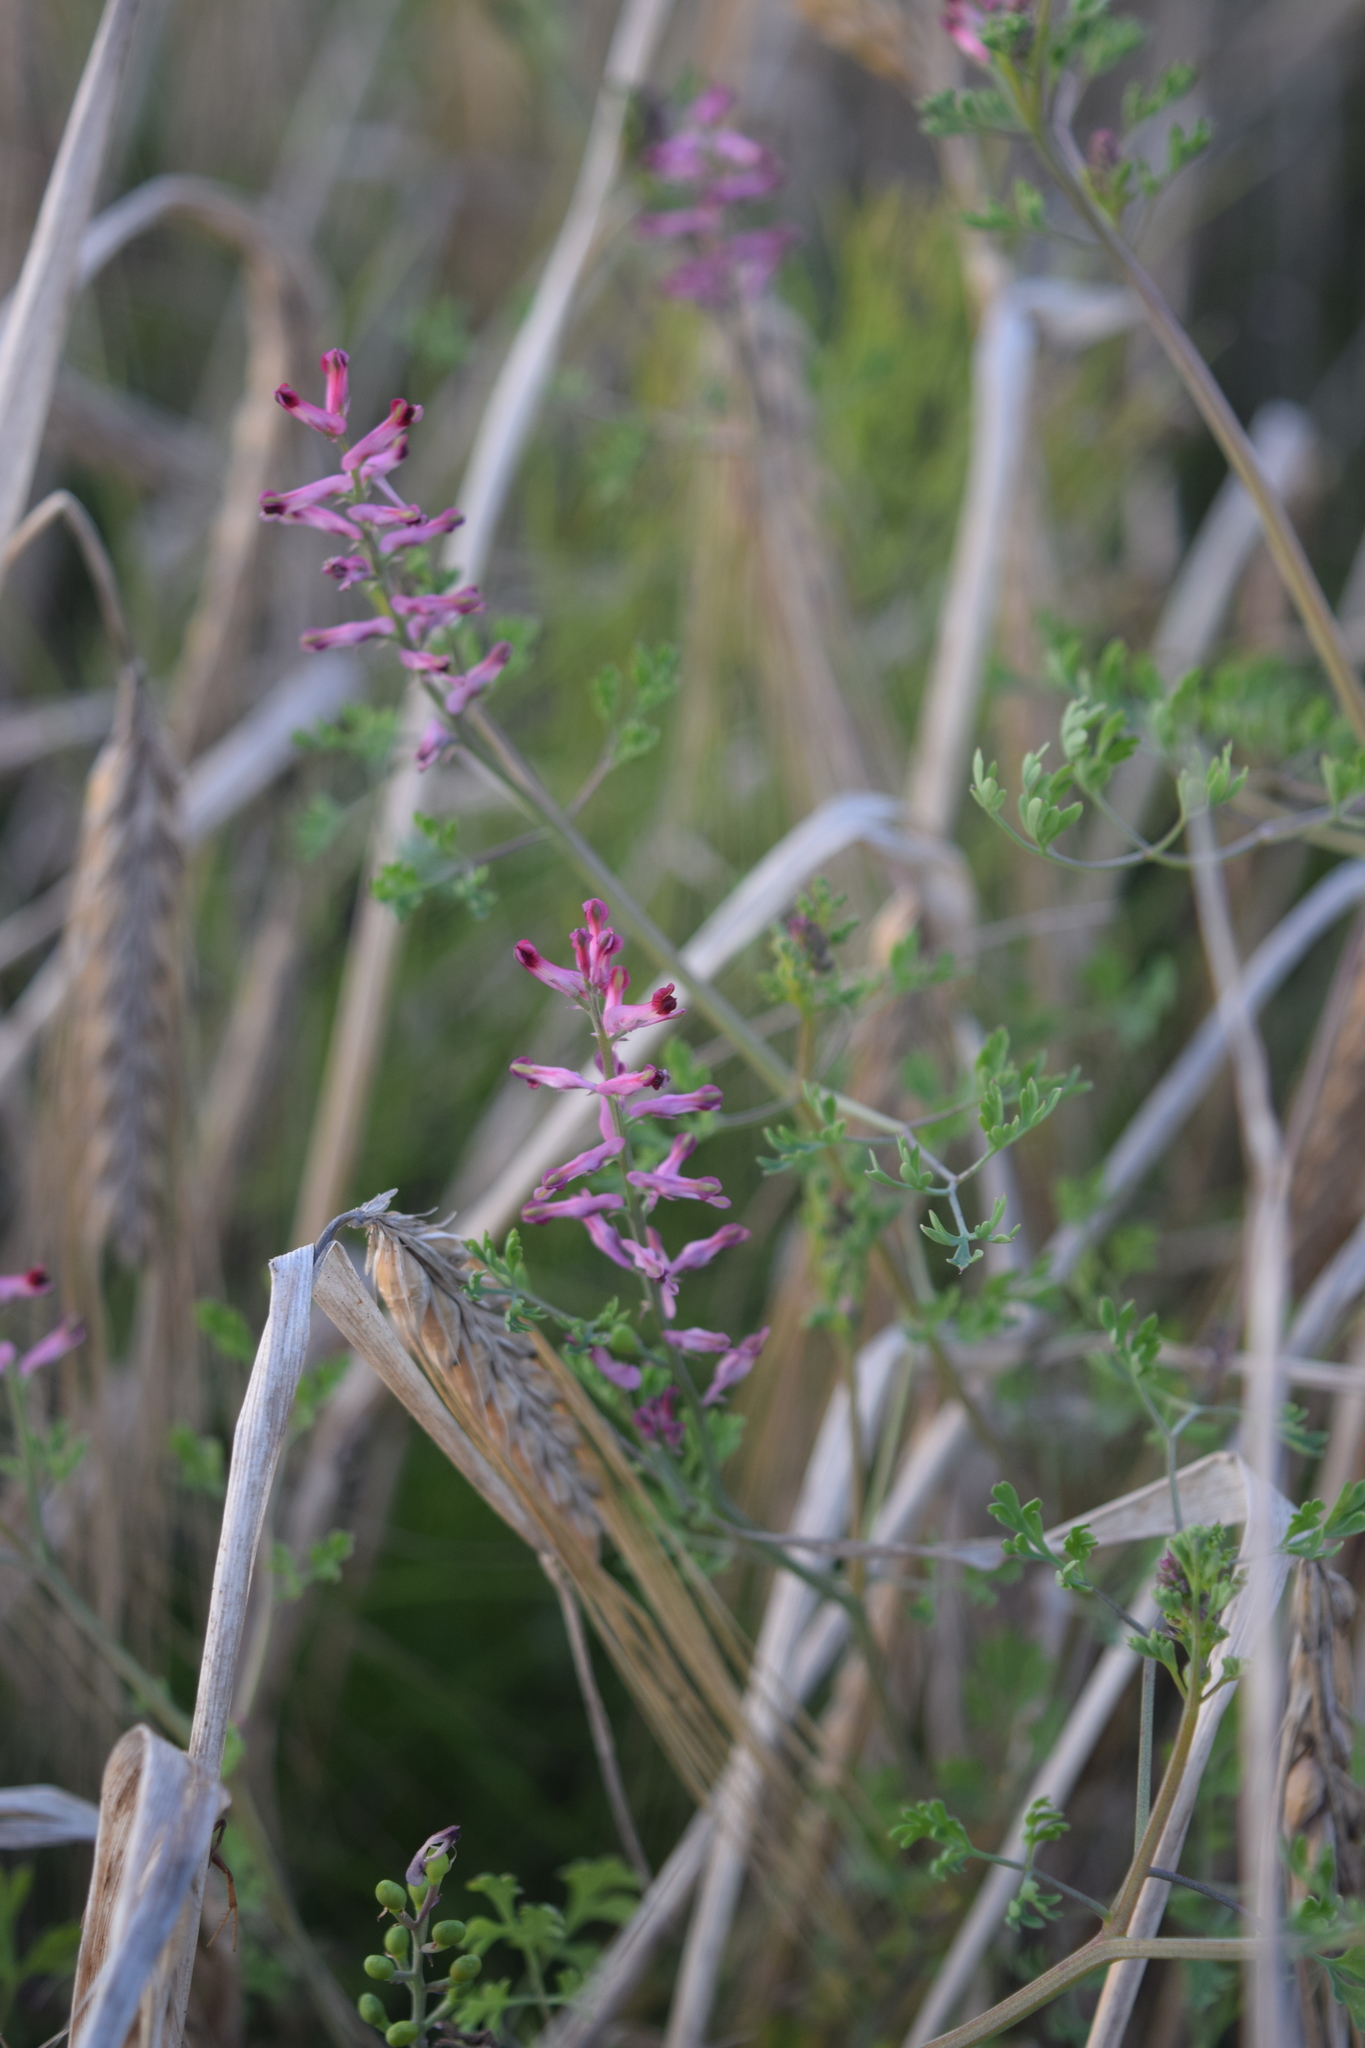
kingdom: Plantae
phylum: Tracheophyta
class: Magnoliopsida
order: Ranunculales
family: Papaveraceae
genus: Fumaria
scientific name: Fumaria officinalis
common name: Common fumitory
